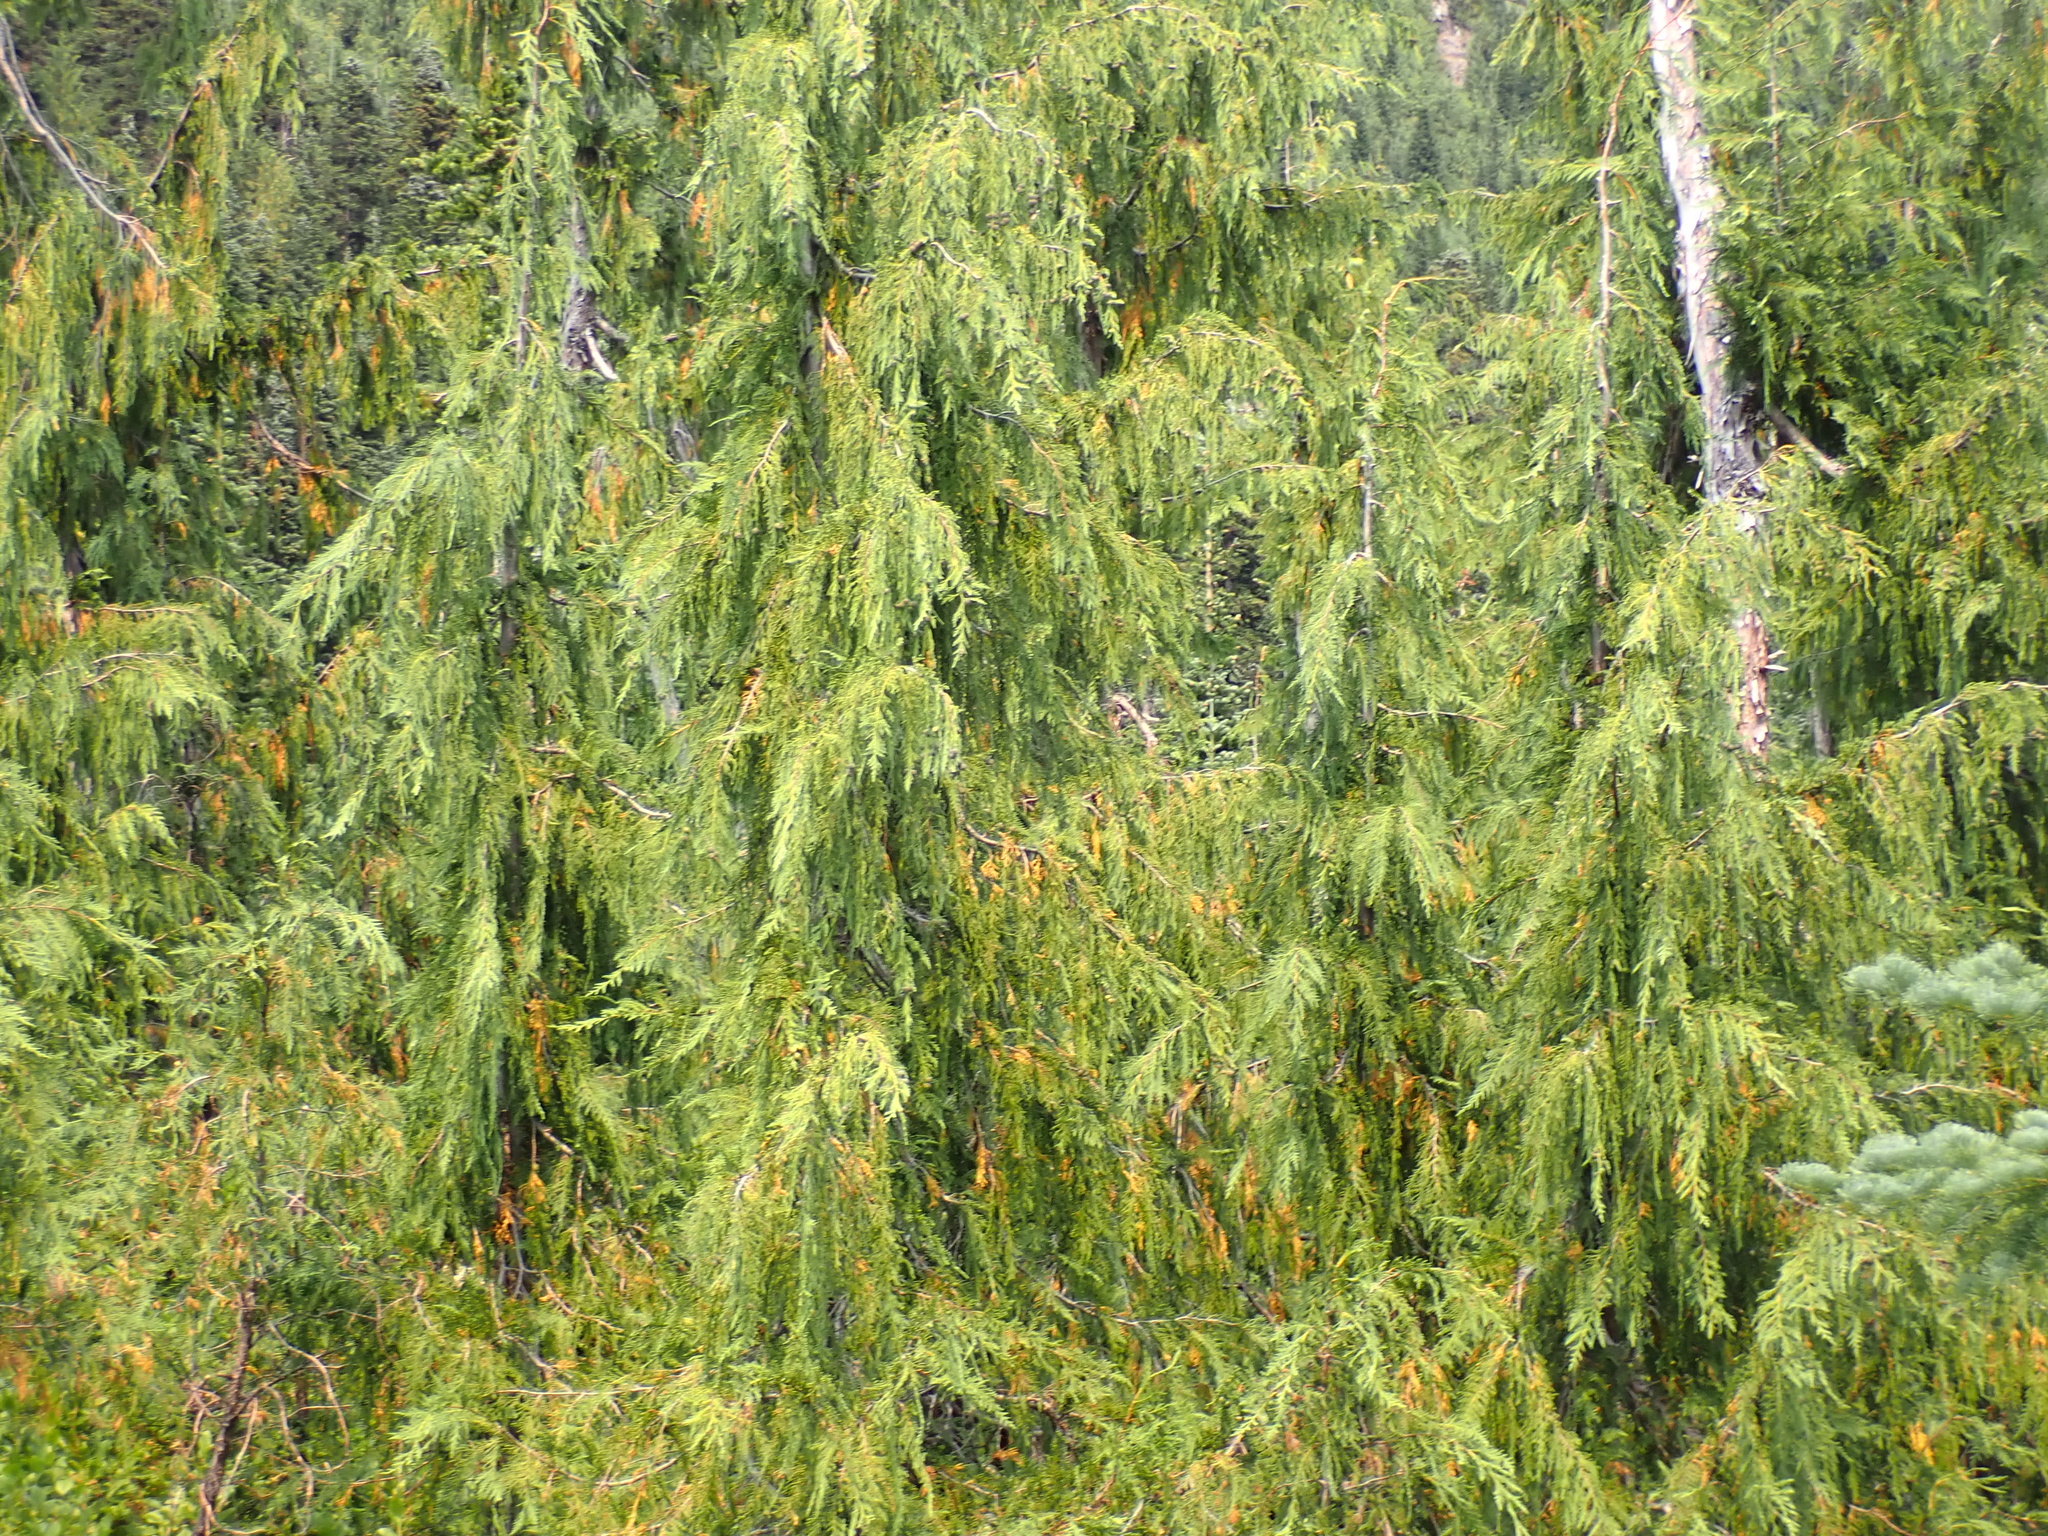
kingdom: Plantae
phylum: Tracheophyta
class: Pinopsida
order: Pinales
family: Cupressaceae
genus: Xanthocyparis
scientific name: Xanthocyparis nootkatensis
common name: Nootka cypress
